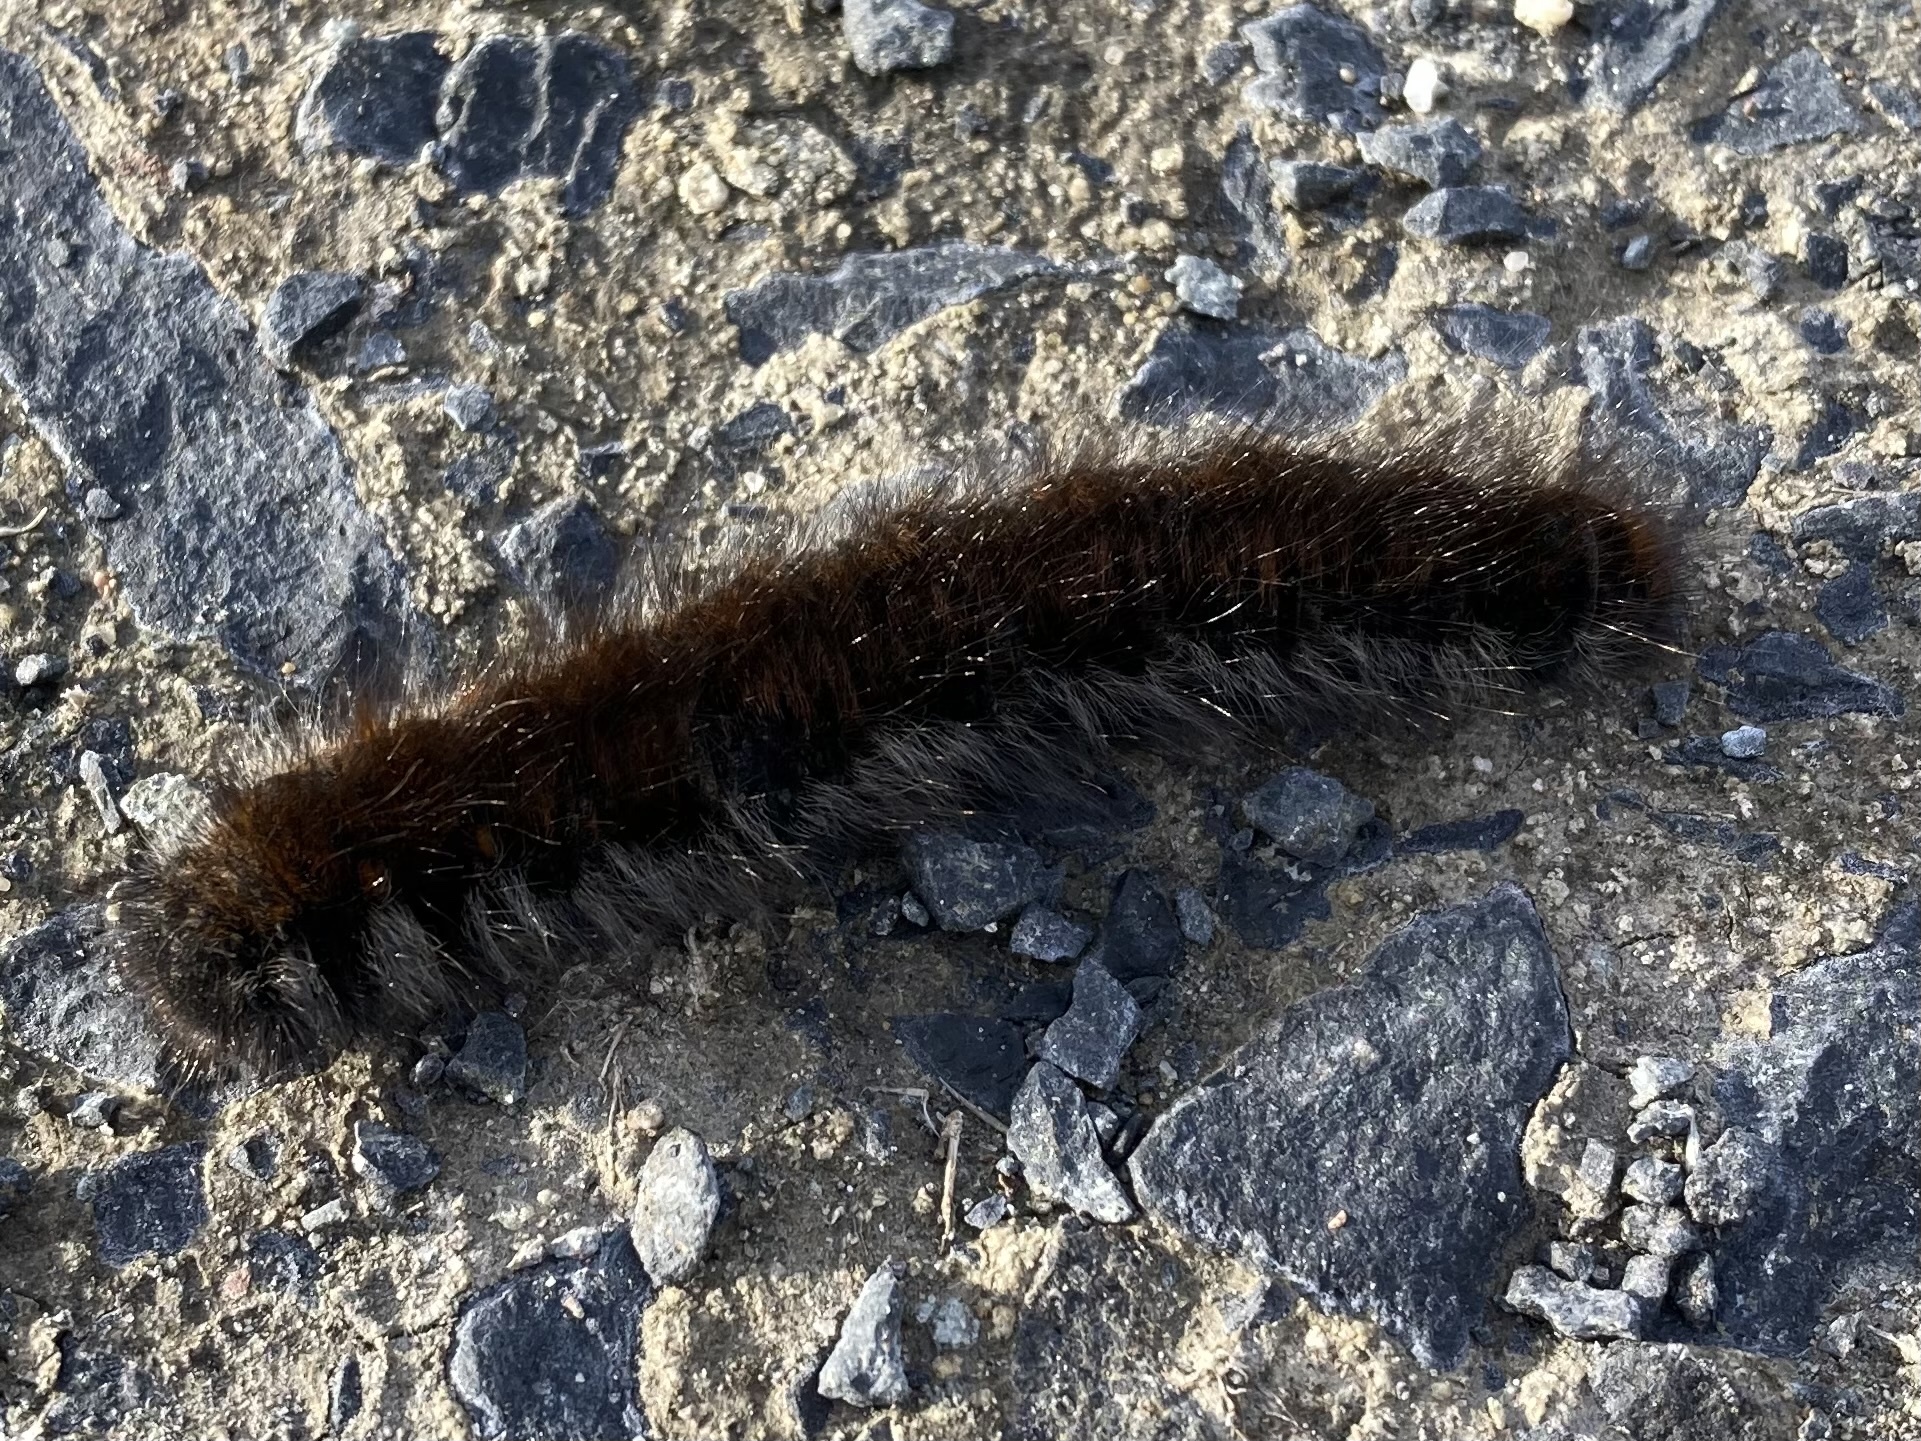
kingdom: Animalia
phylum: Arthropoda
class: Insecta
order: Lepidoptera
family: Lasiocampidae
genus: Macrothylacia
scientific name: Macrothylacia rubi
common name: Fox moth
